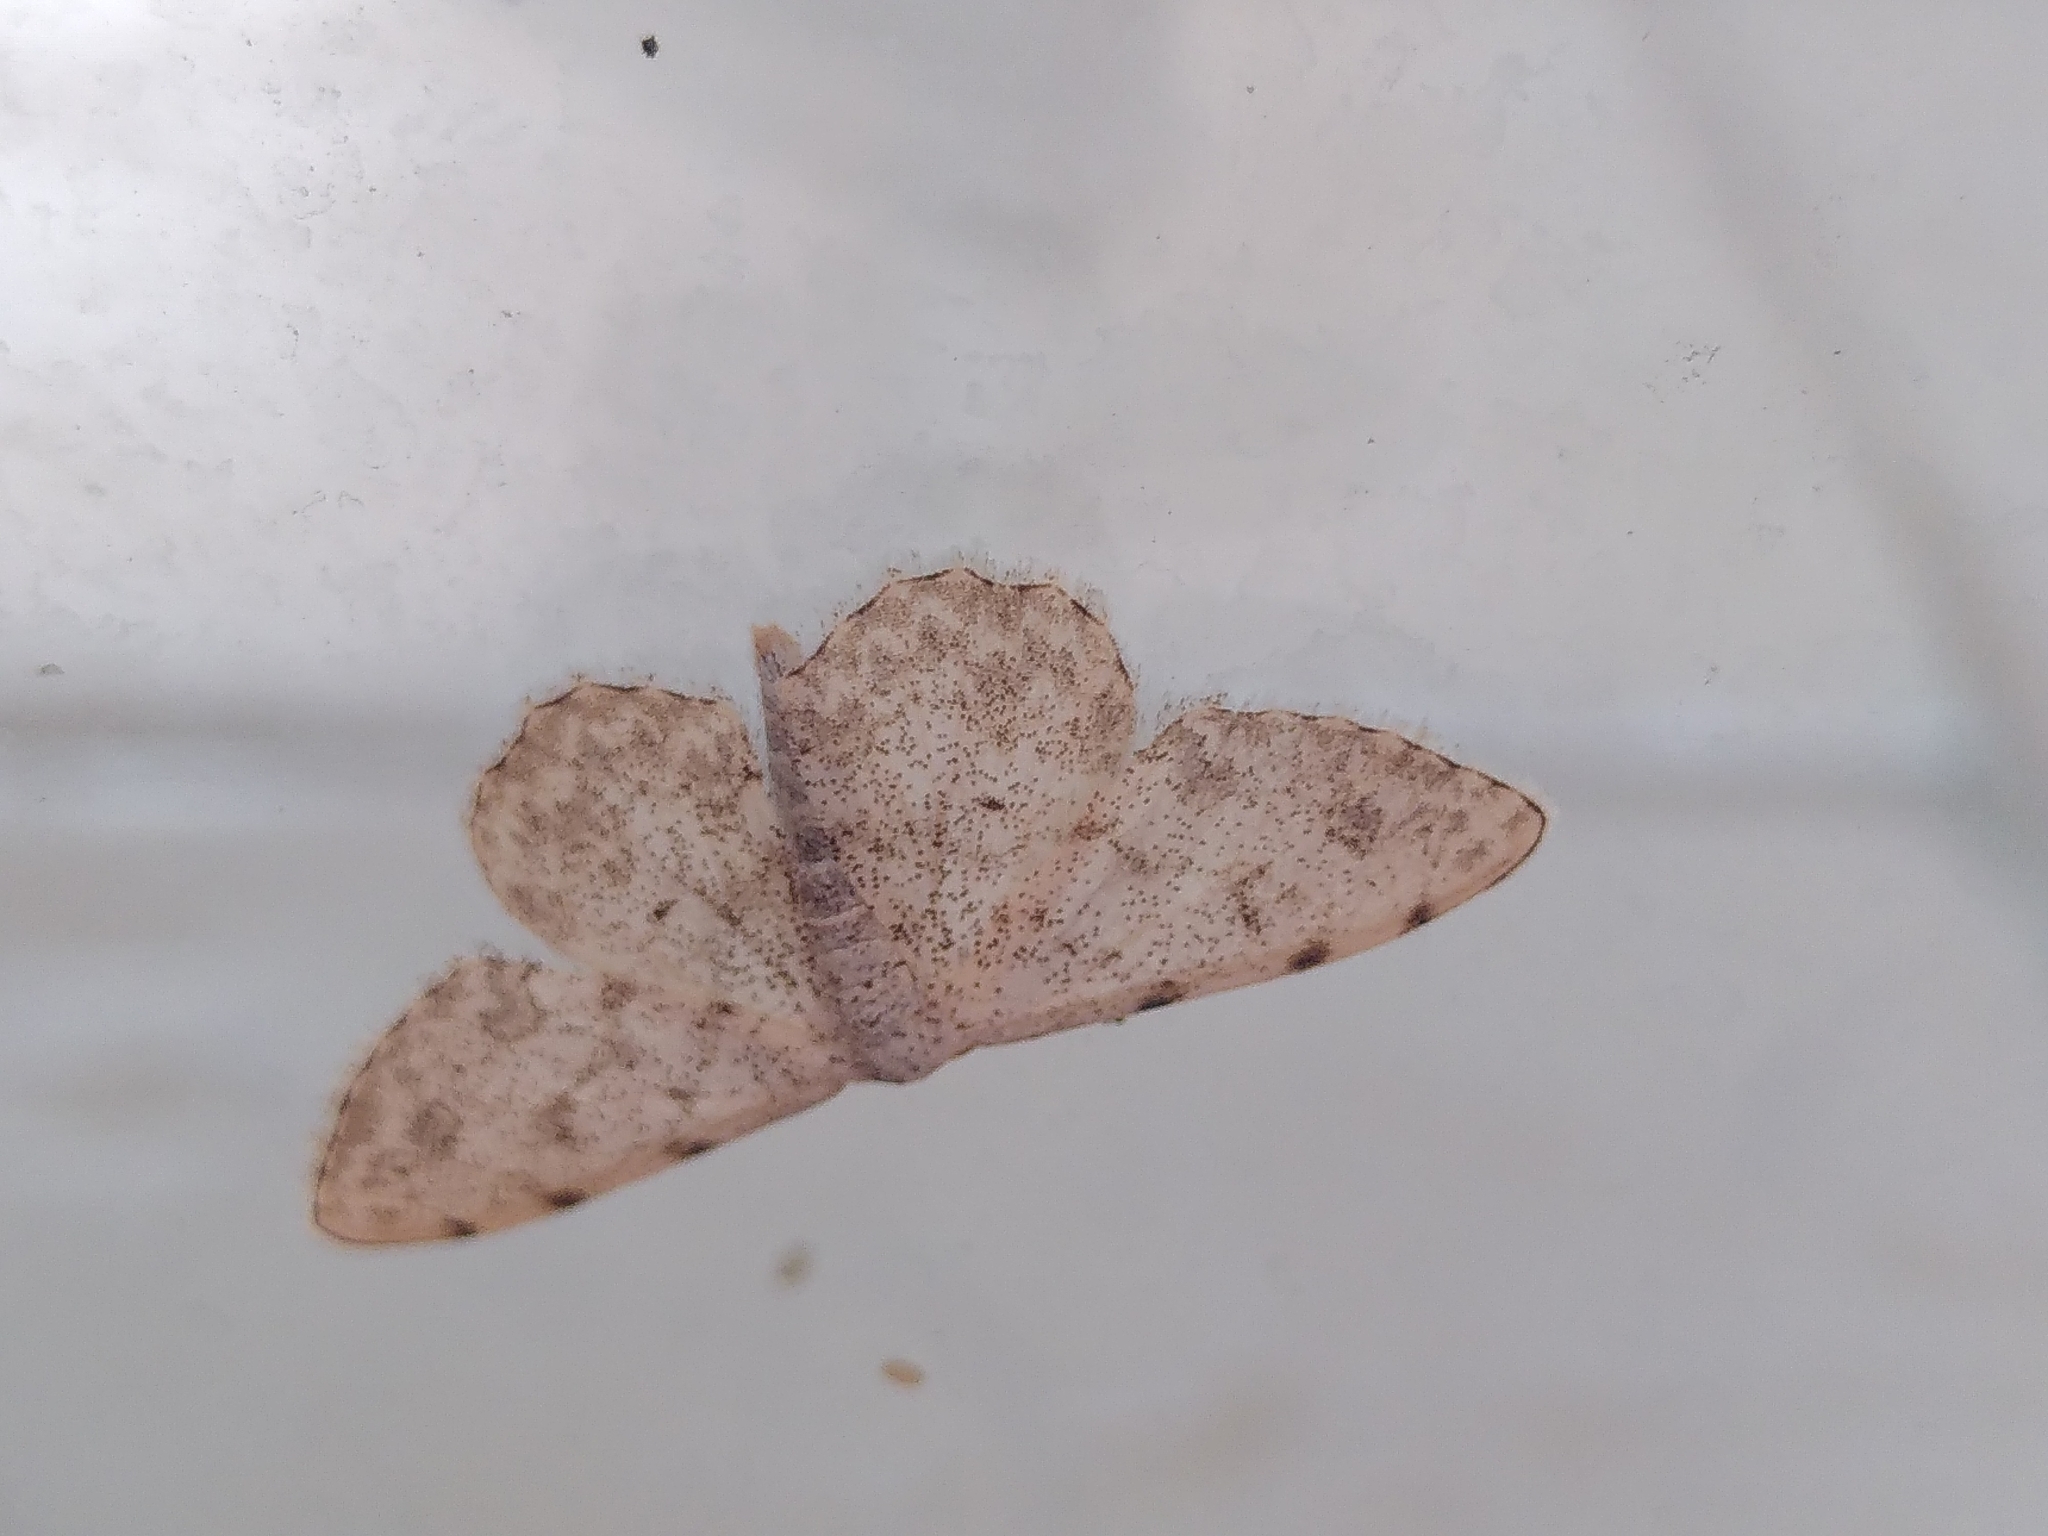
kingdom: Animalia
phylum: Arthropoda
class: Insecta
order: Lepidoptera
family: Geometridae
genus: Scopula
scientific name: Scopula submutata
